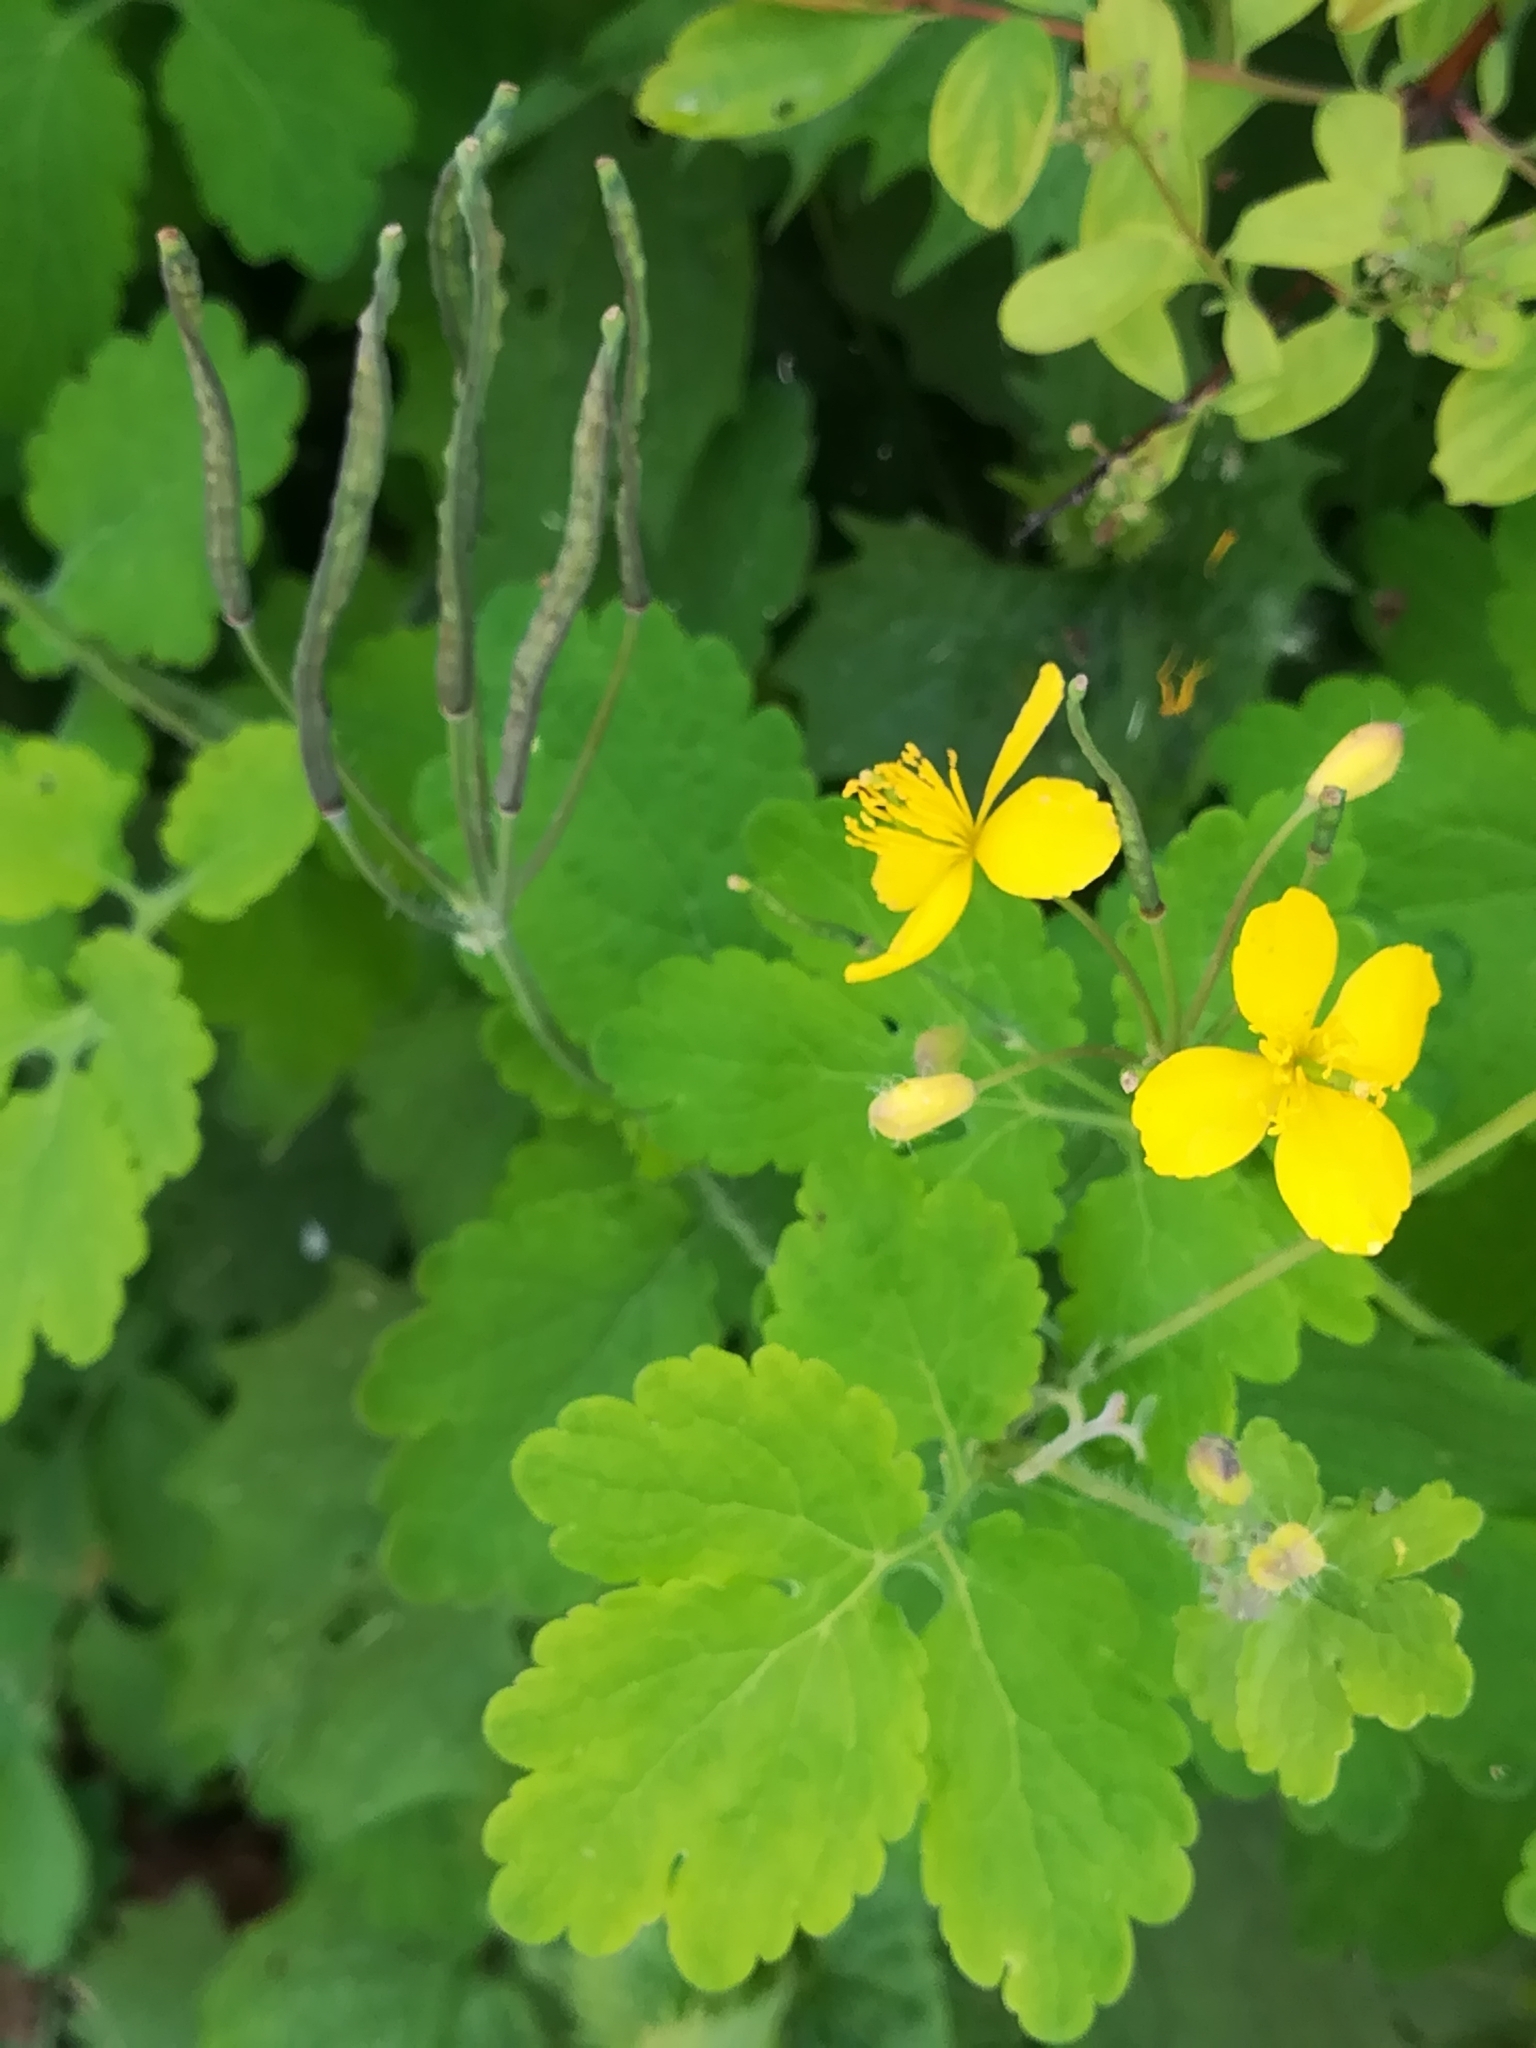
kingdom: Plantae
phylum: Tracheophyta
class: Magnoliopsida
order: Ranunculales
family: Papaveraceae
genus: Chelidonium
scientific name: Chelidonium majus
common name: Greater celandine
